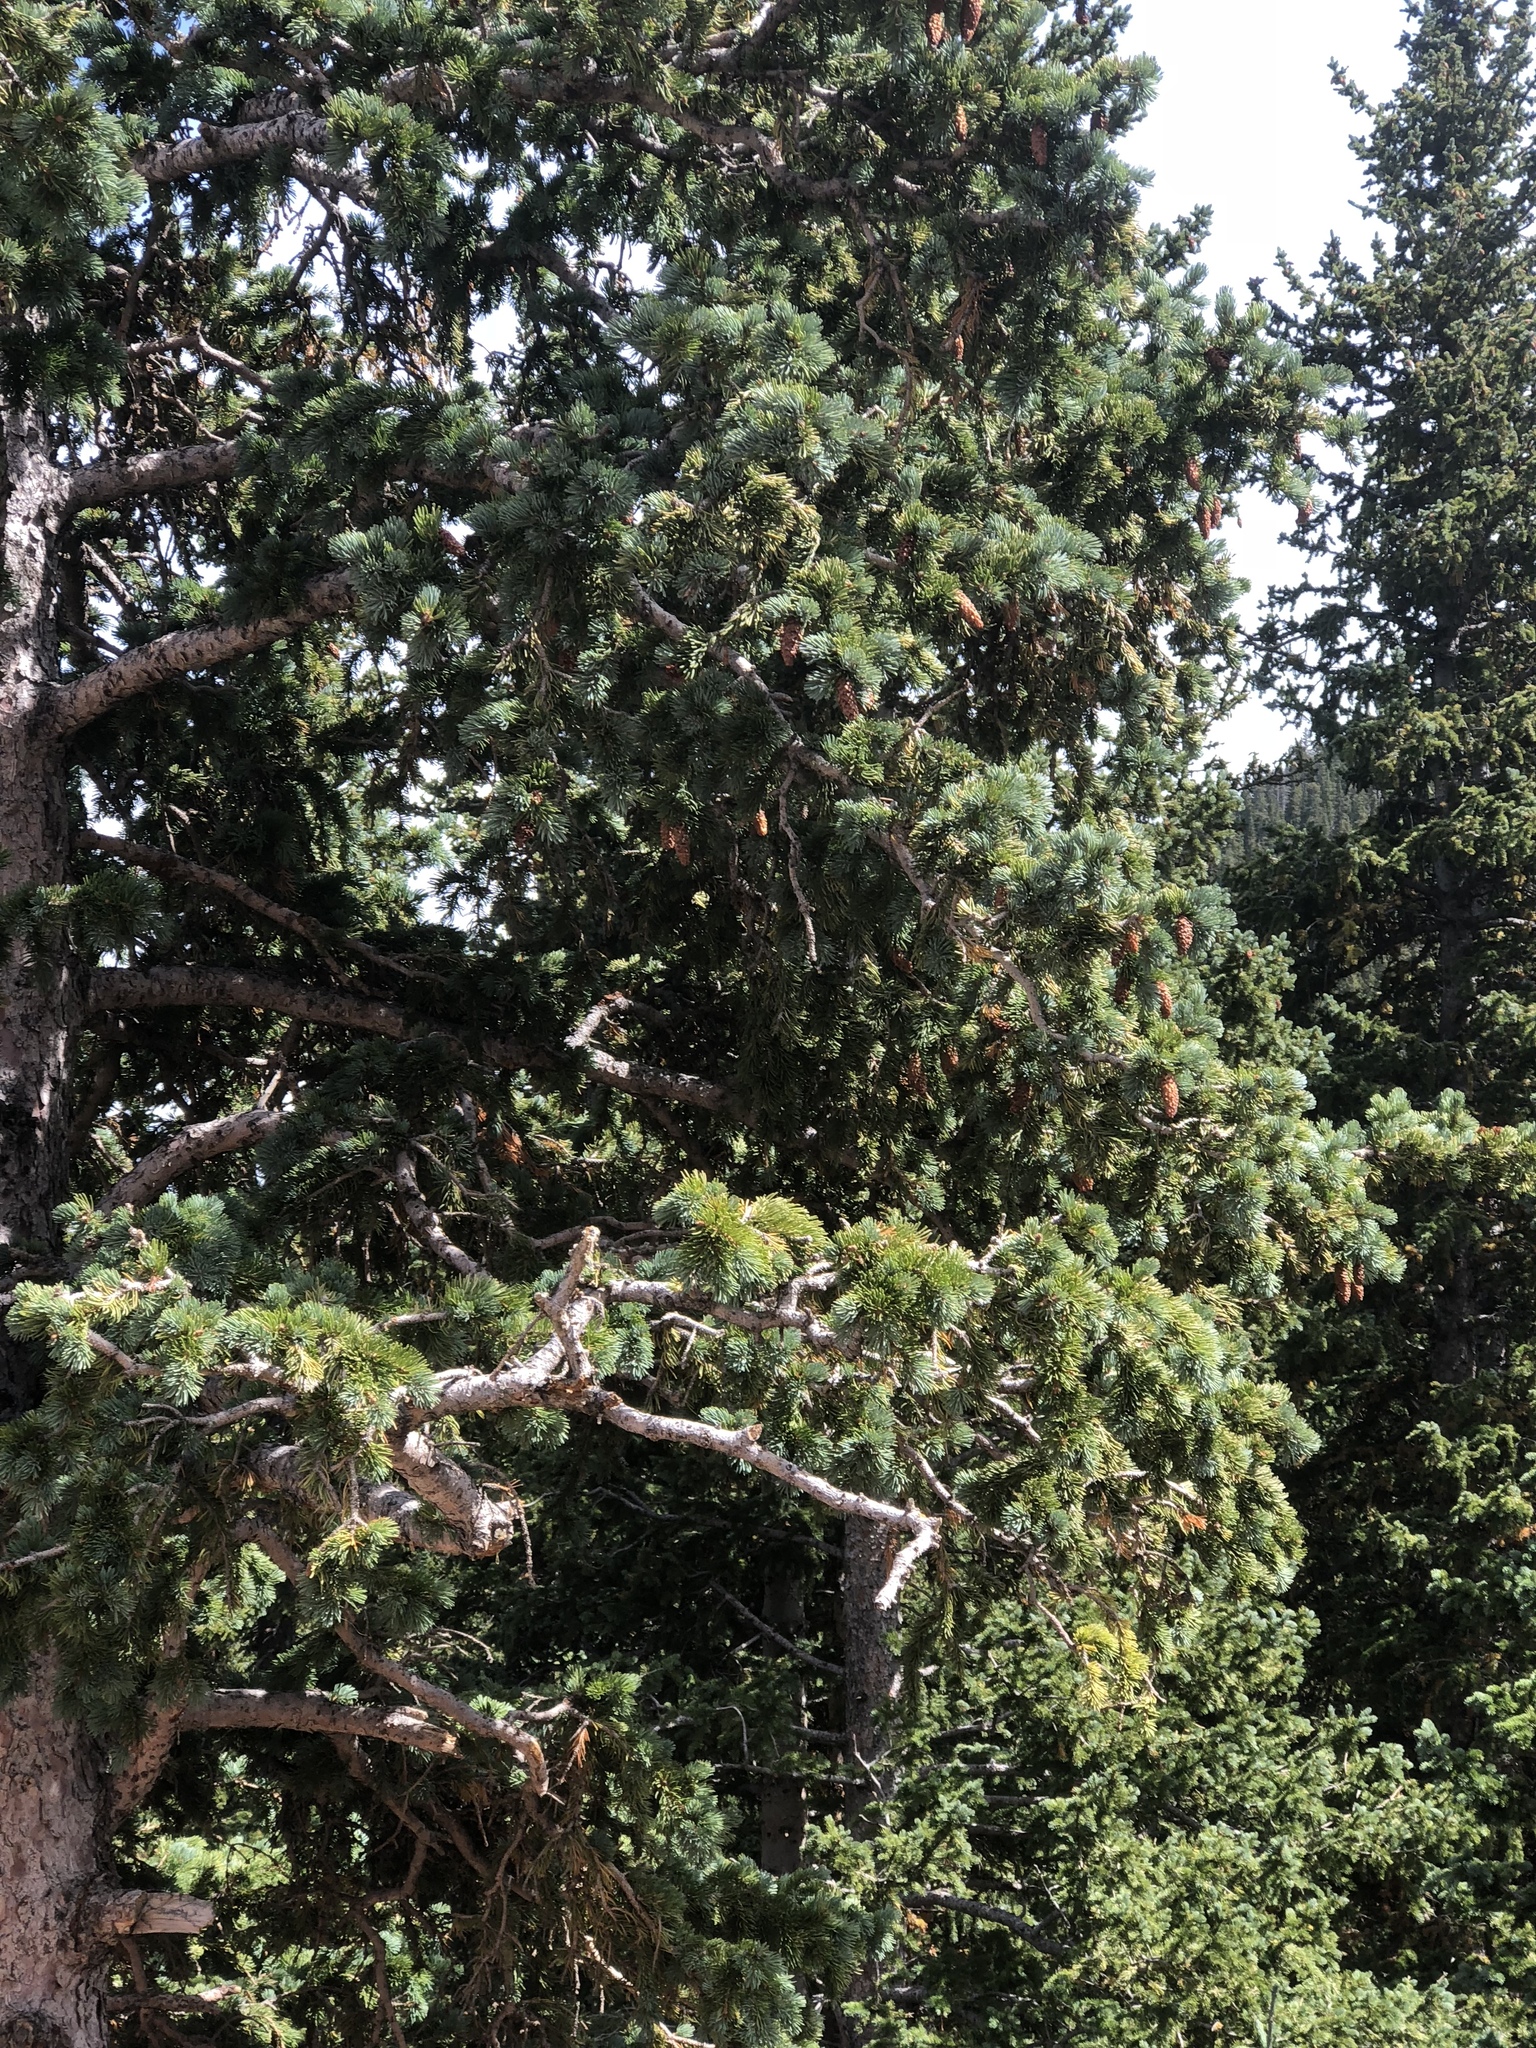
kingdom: Plantae
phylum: Tracheophyta
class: Pinopsida
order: Pinales
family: Pinaceae
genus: Picea
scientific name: Picea pungens
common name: Colorado spruce
